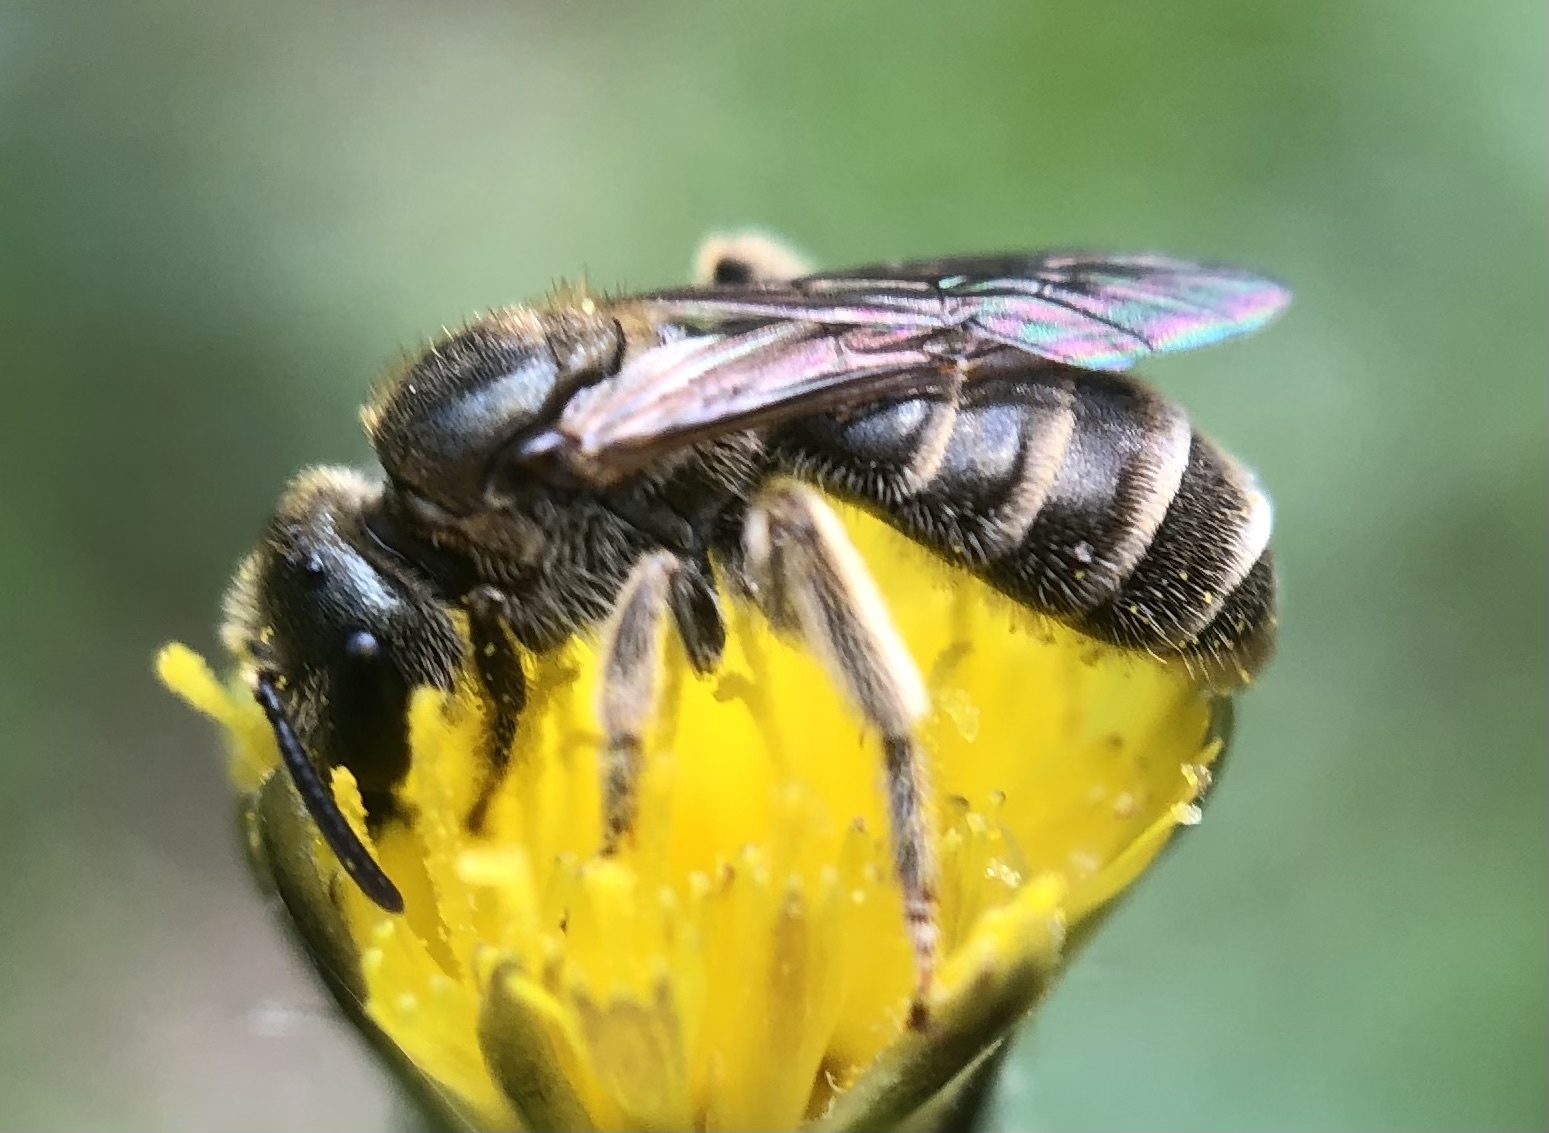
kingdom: Animalia
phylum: Arthropoda
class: Insecta
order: Hymenoptera
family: Halictidae
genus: Halictus
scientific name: Halictus confusus
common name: Southern bronze furrow bee
